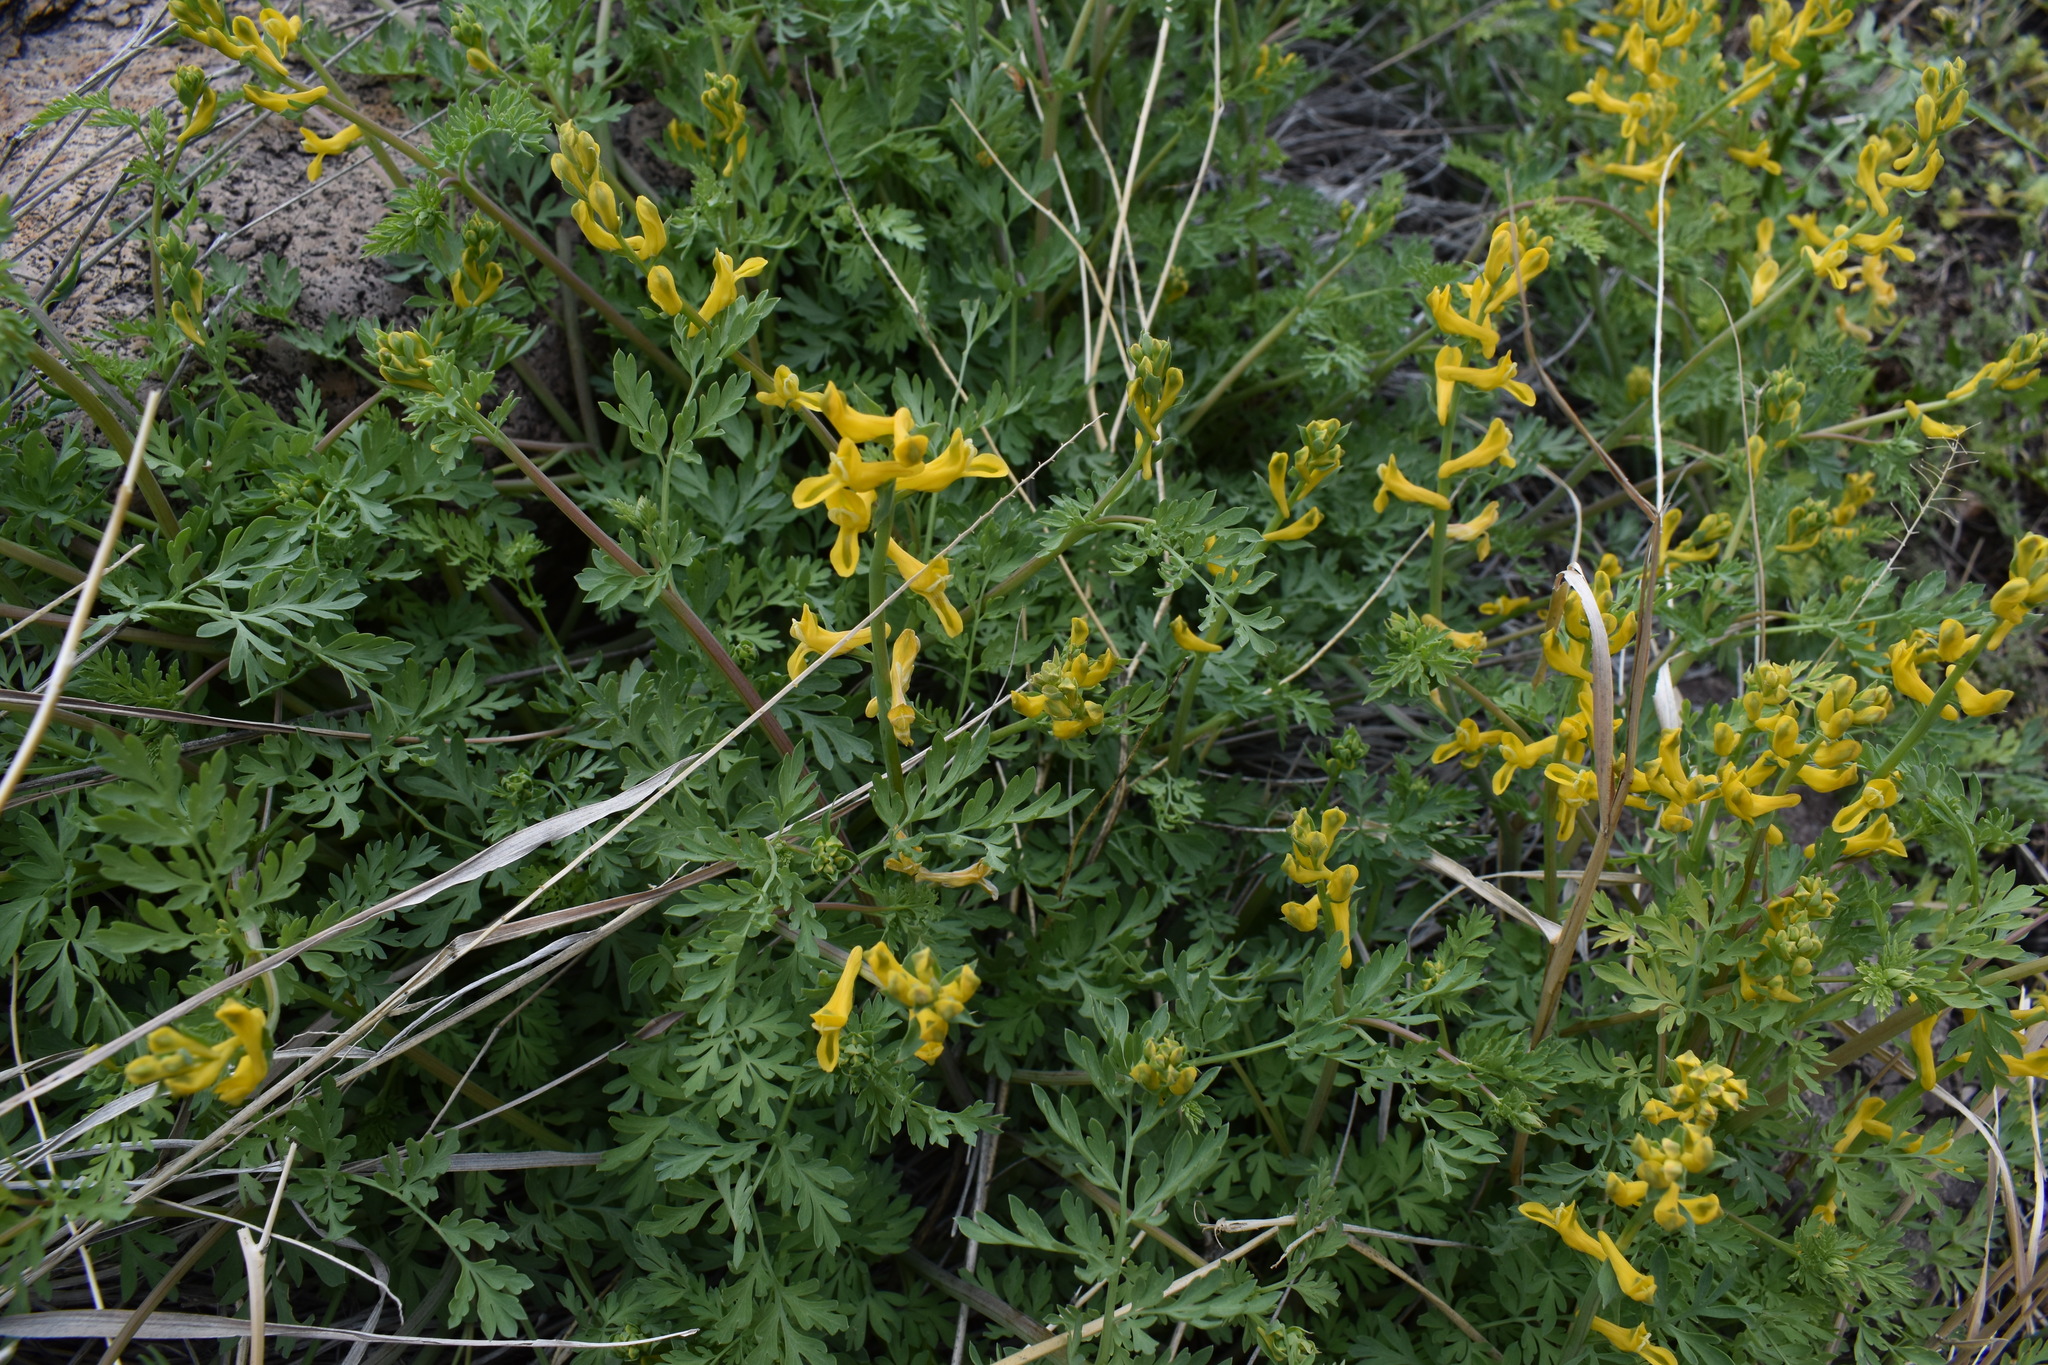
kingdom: Plantae
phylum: Tracheophyta
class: Magnoliopsida
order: Ranunculales
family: Papaveraceae
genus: Corydalis
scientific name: Corydalis aurea
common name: Golden corydalis
